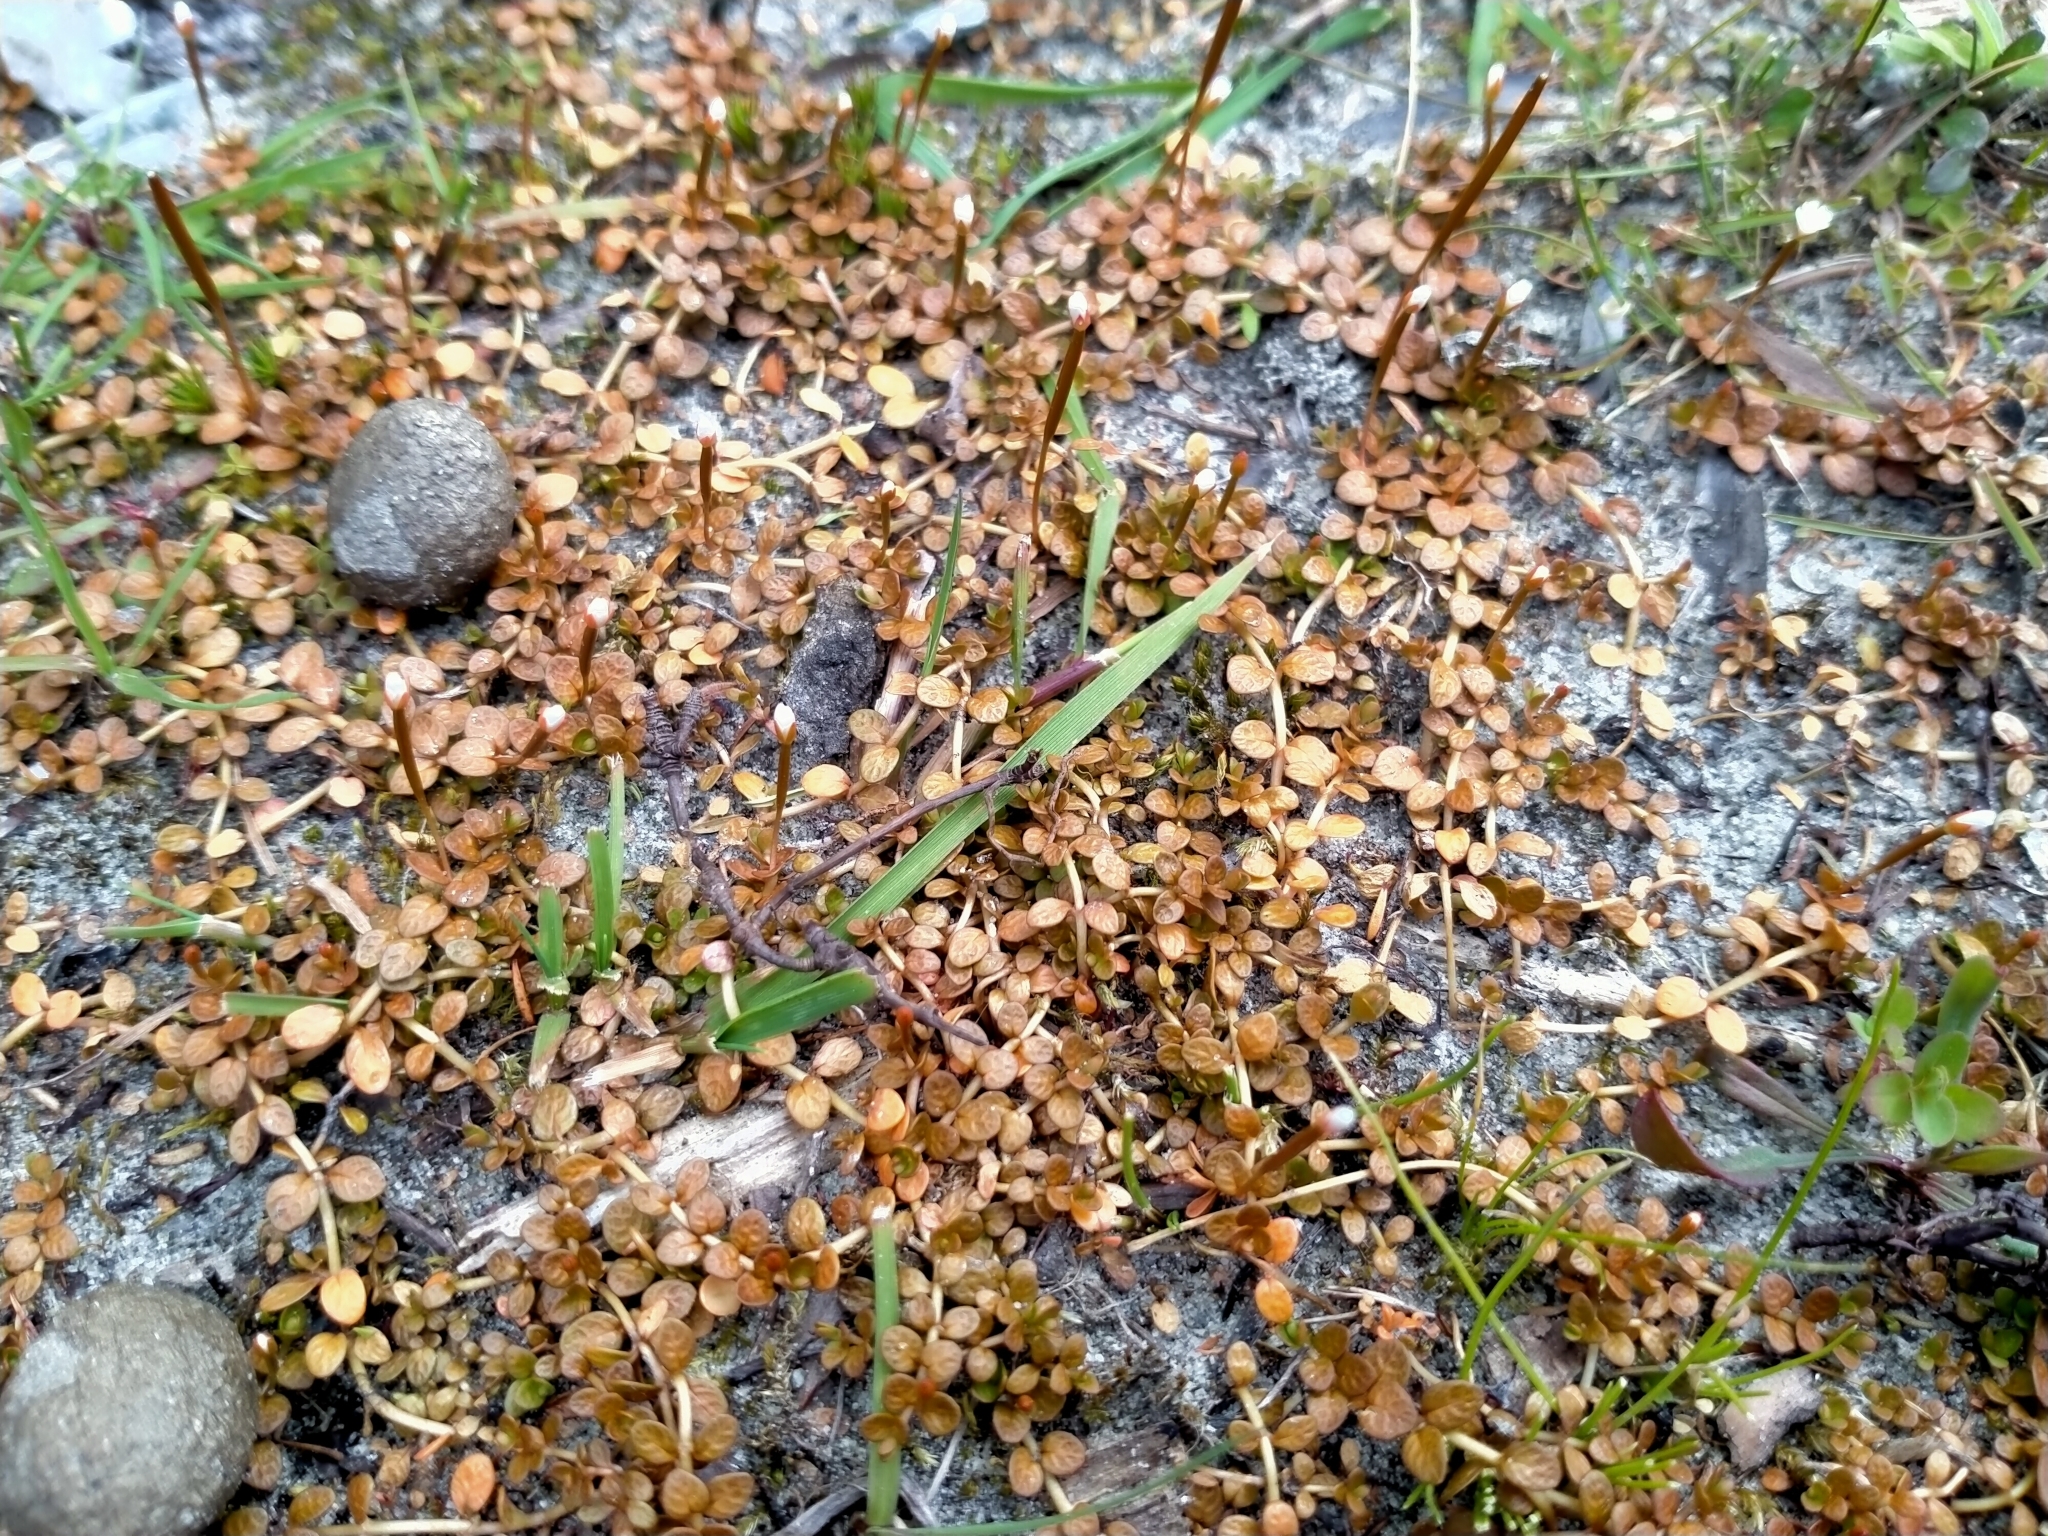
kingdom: Plantae
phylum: Tracheophyta
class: Magnoliopsida
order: Myrtales
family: Onagraceae
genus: Epilobium
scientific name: Epilobium komarovianum
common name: Bronzy willowherb
